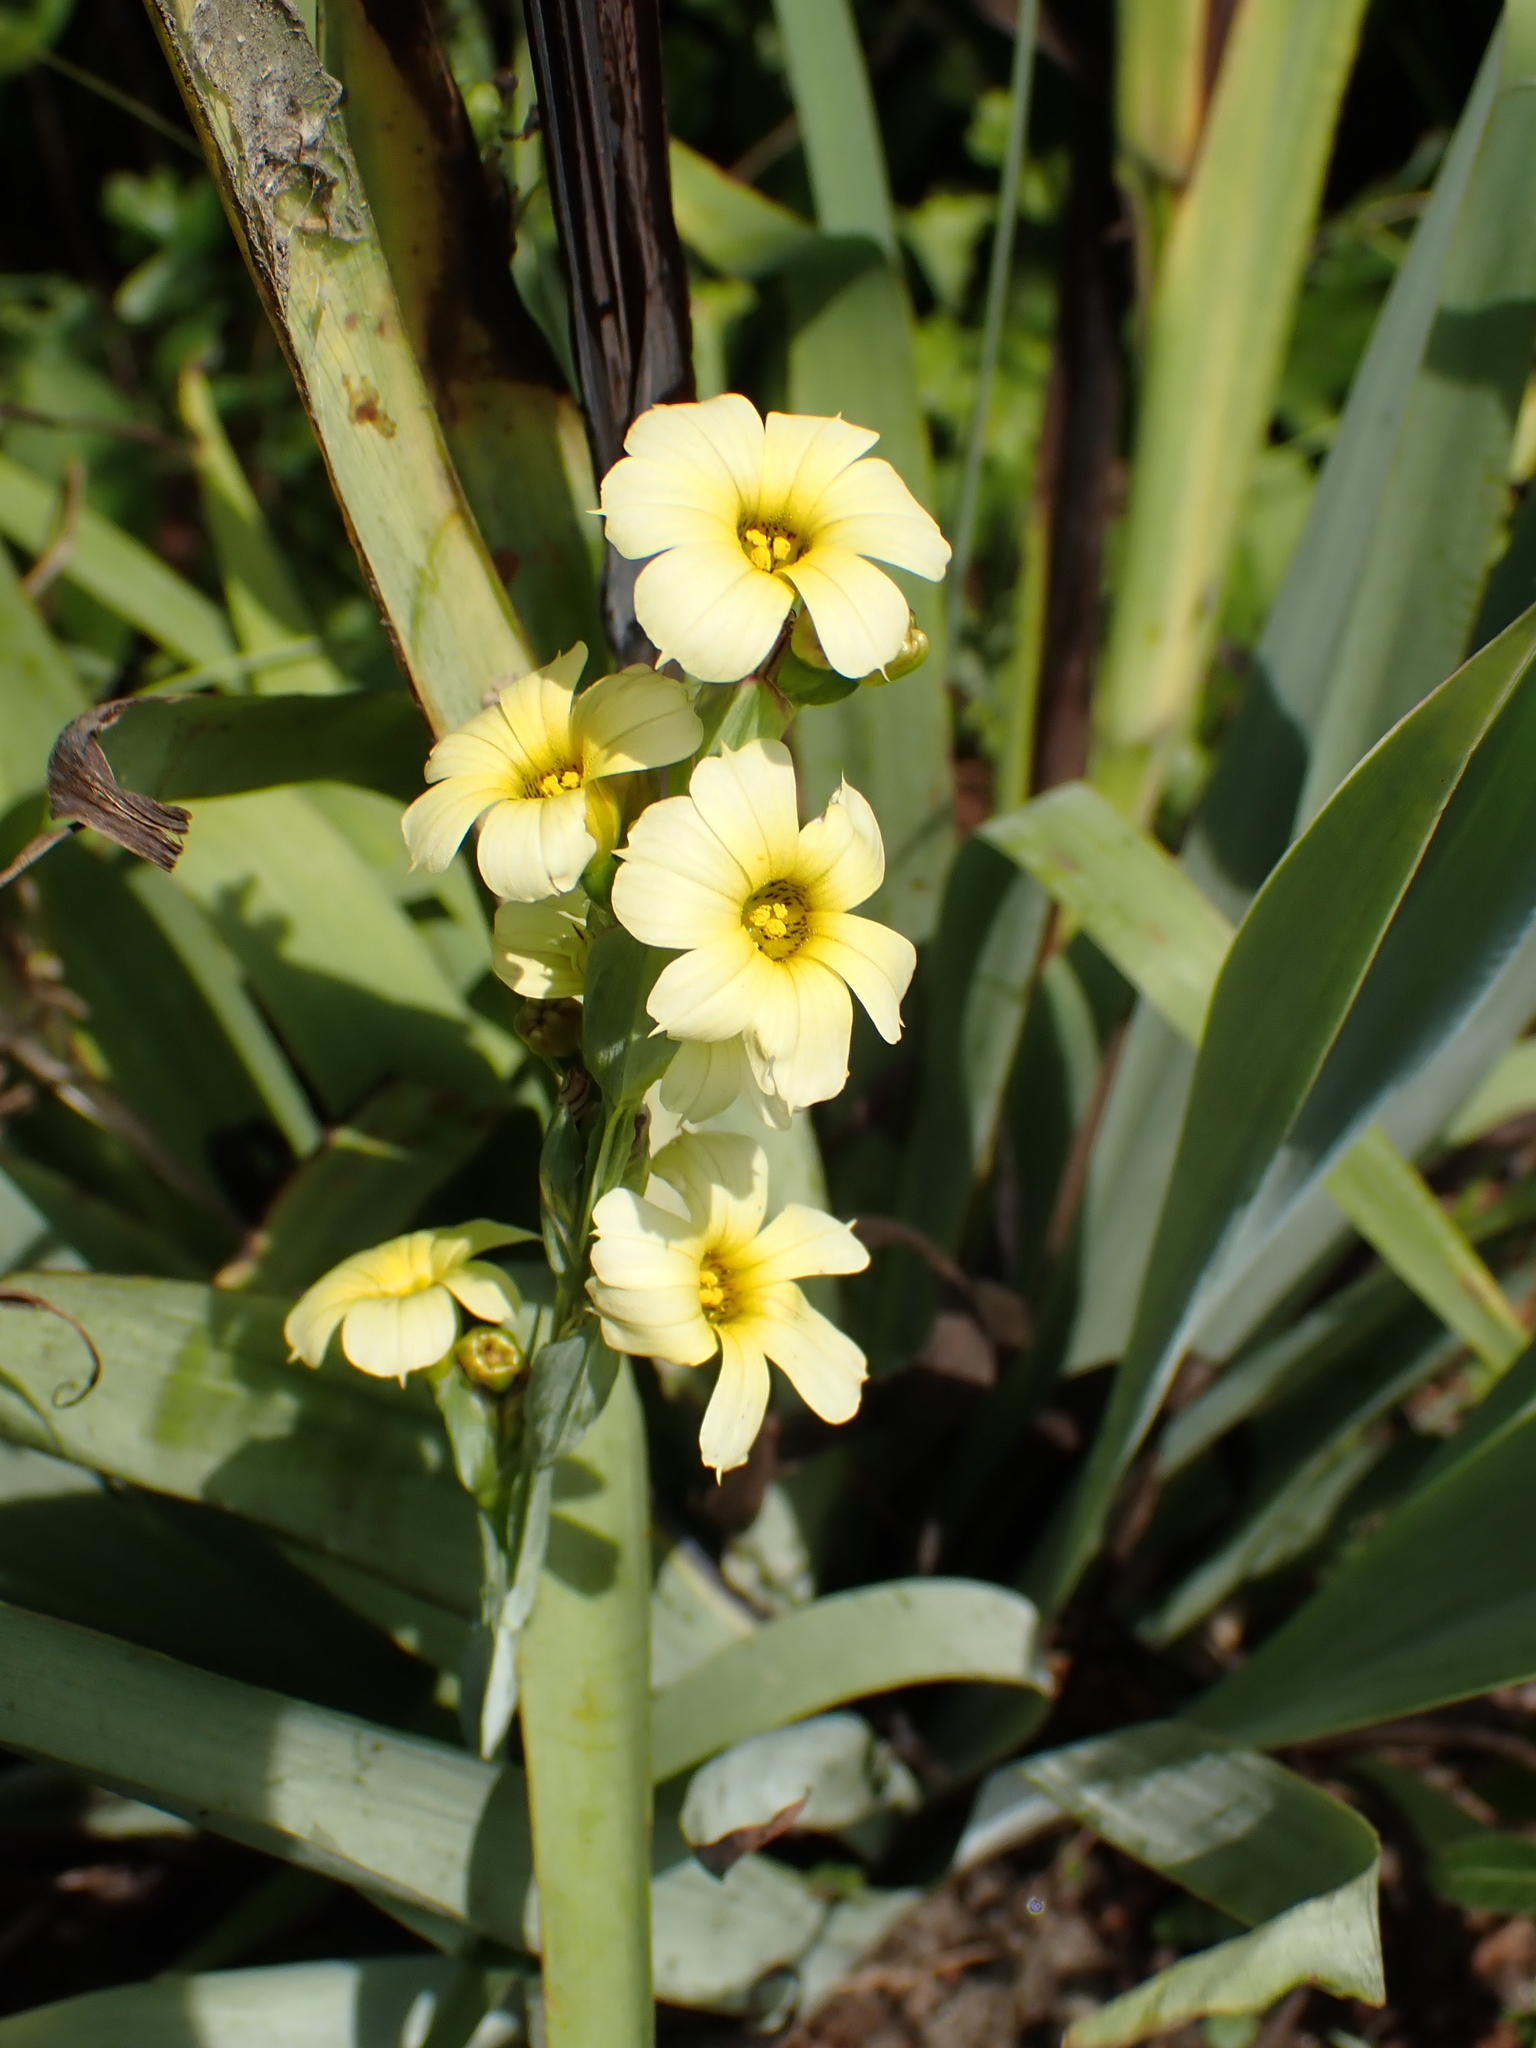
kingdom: Plantae
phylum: Tracheophyta
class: Liliopsida
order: Asparagales
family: Iridaceae
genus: Sisyrinchium
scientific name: Sisyrinchium striatum
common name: Pale yellow-eyed-grass
